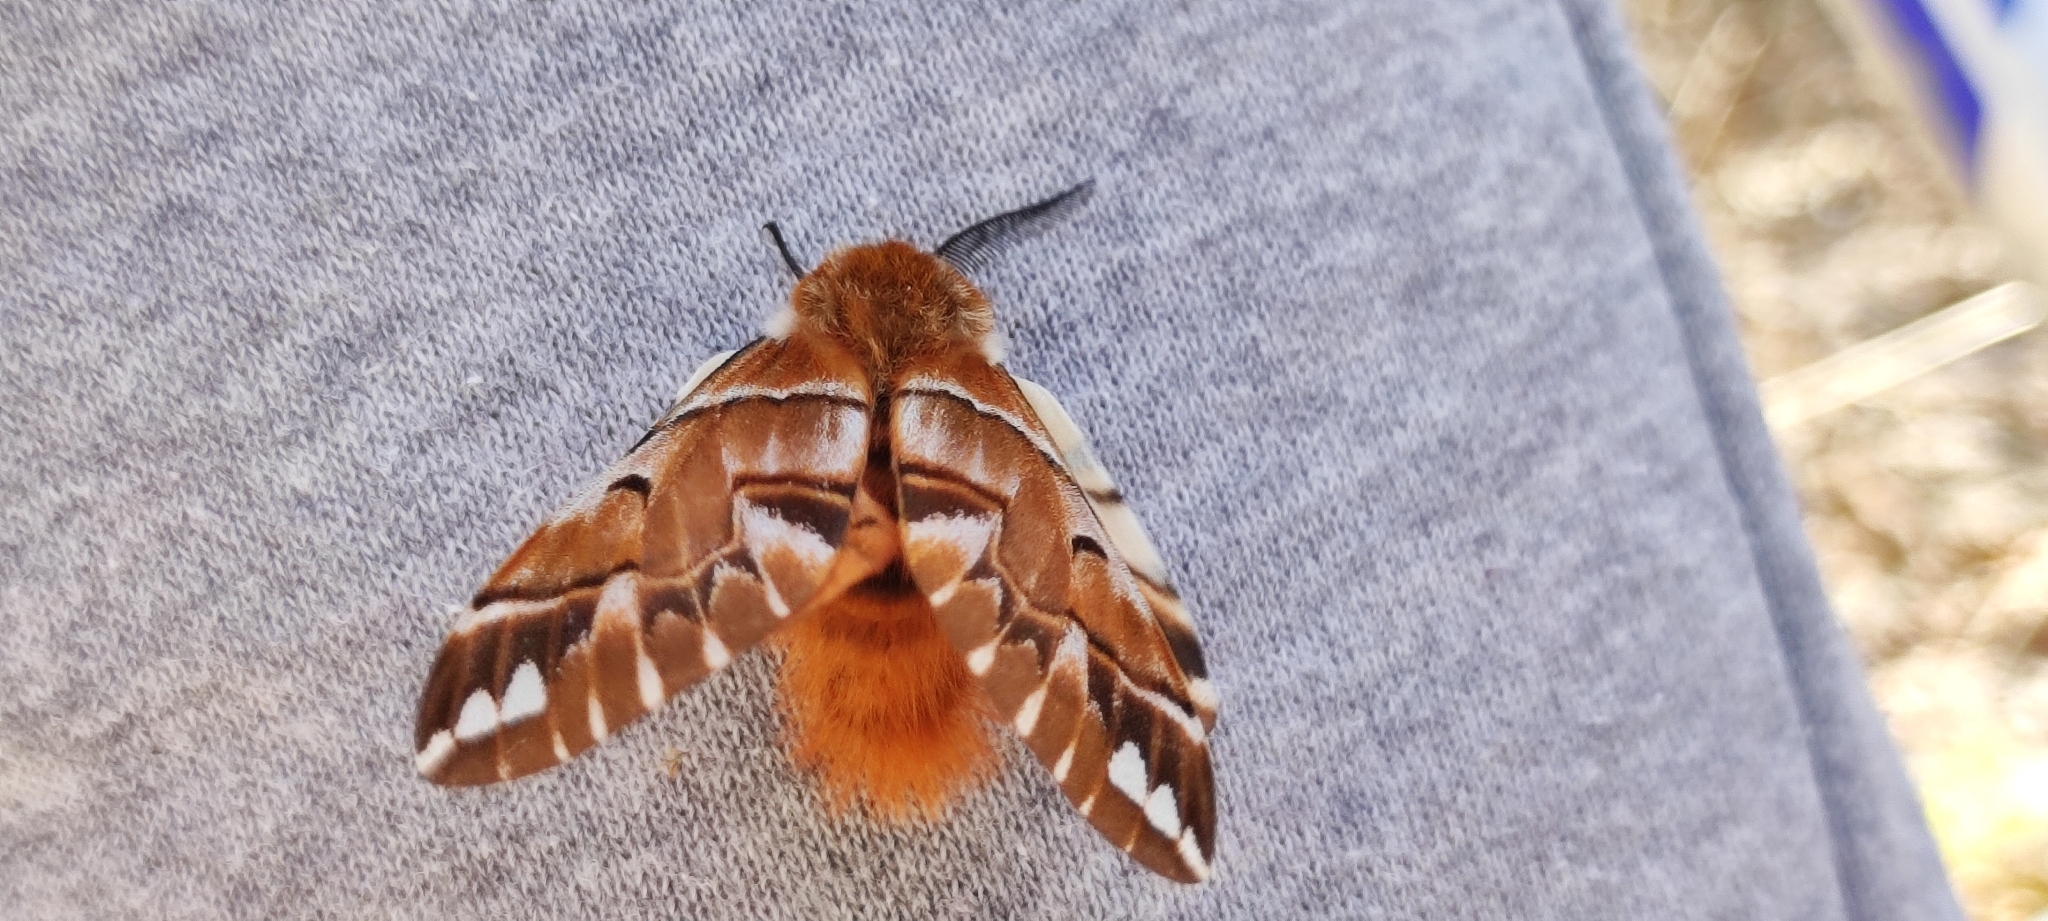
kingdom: Animalia
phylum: Arthropoda
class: Insecta
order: Lepidoptera
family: Endromidae
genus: Endromis
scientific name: Endromis versicolora
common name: Kentish glory
